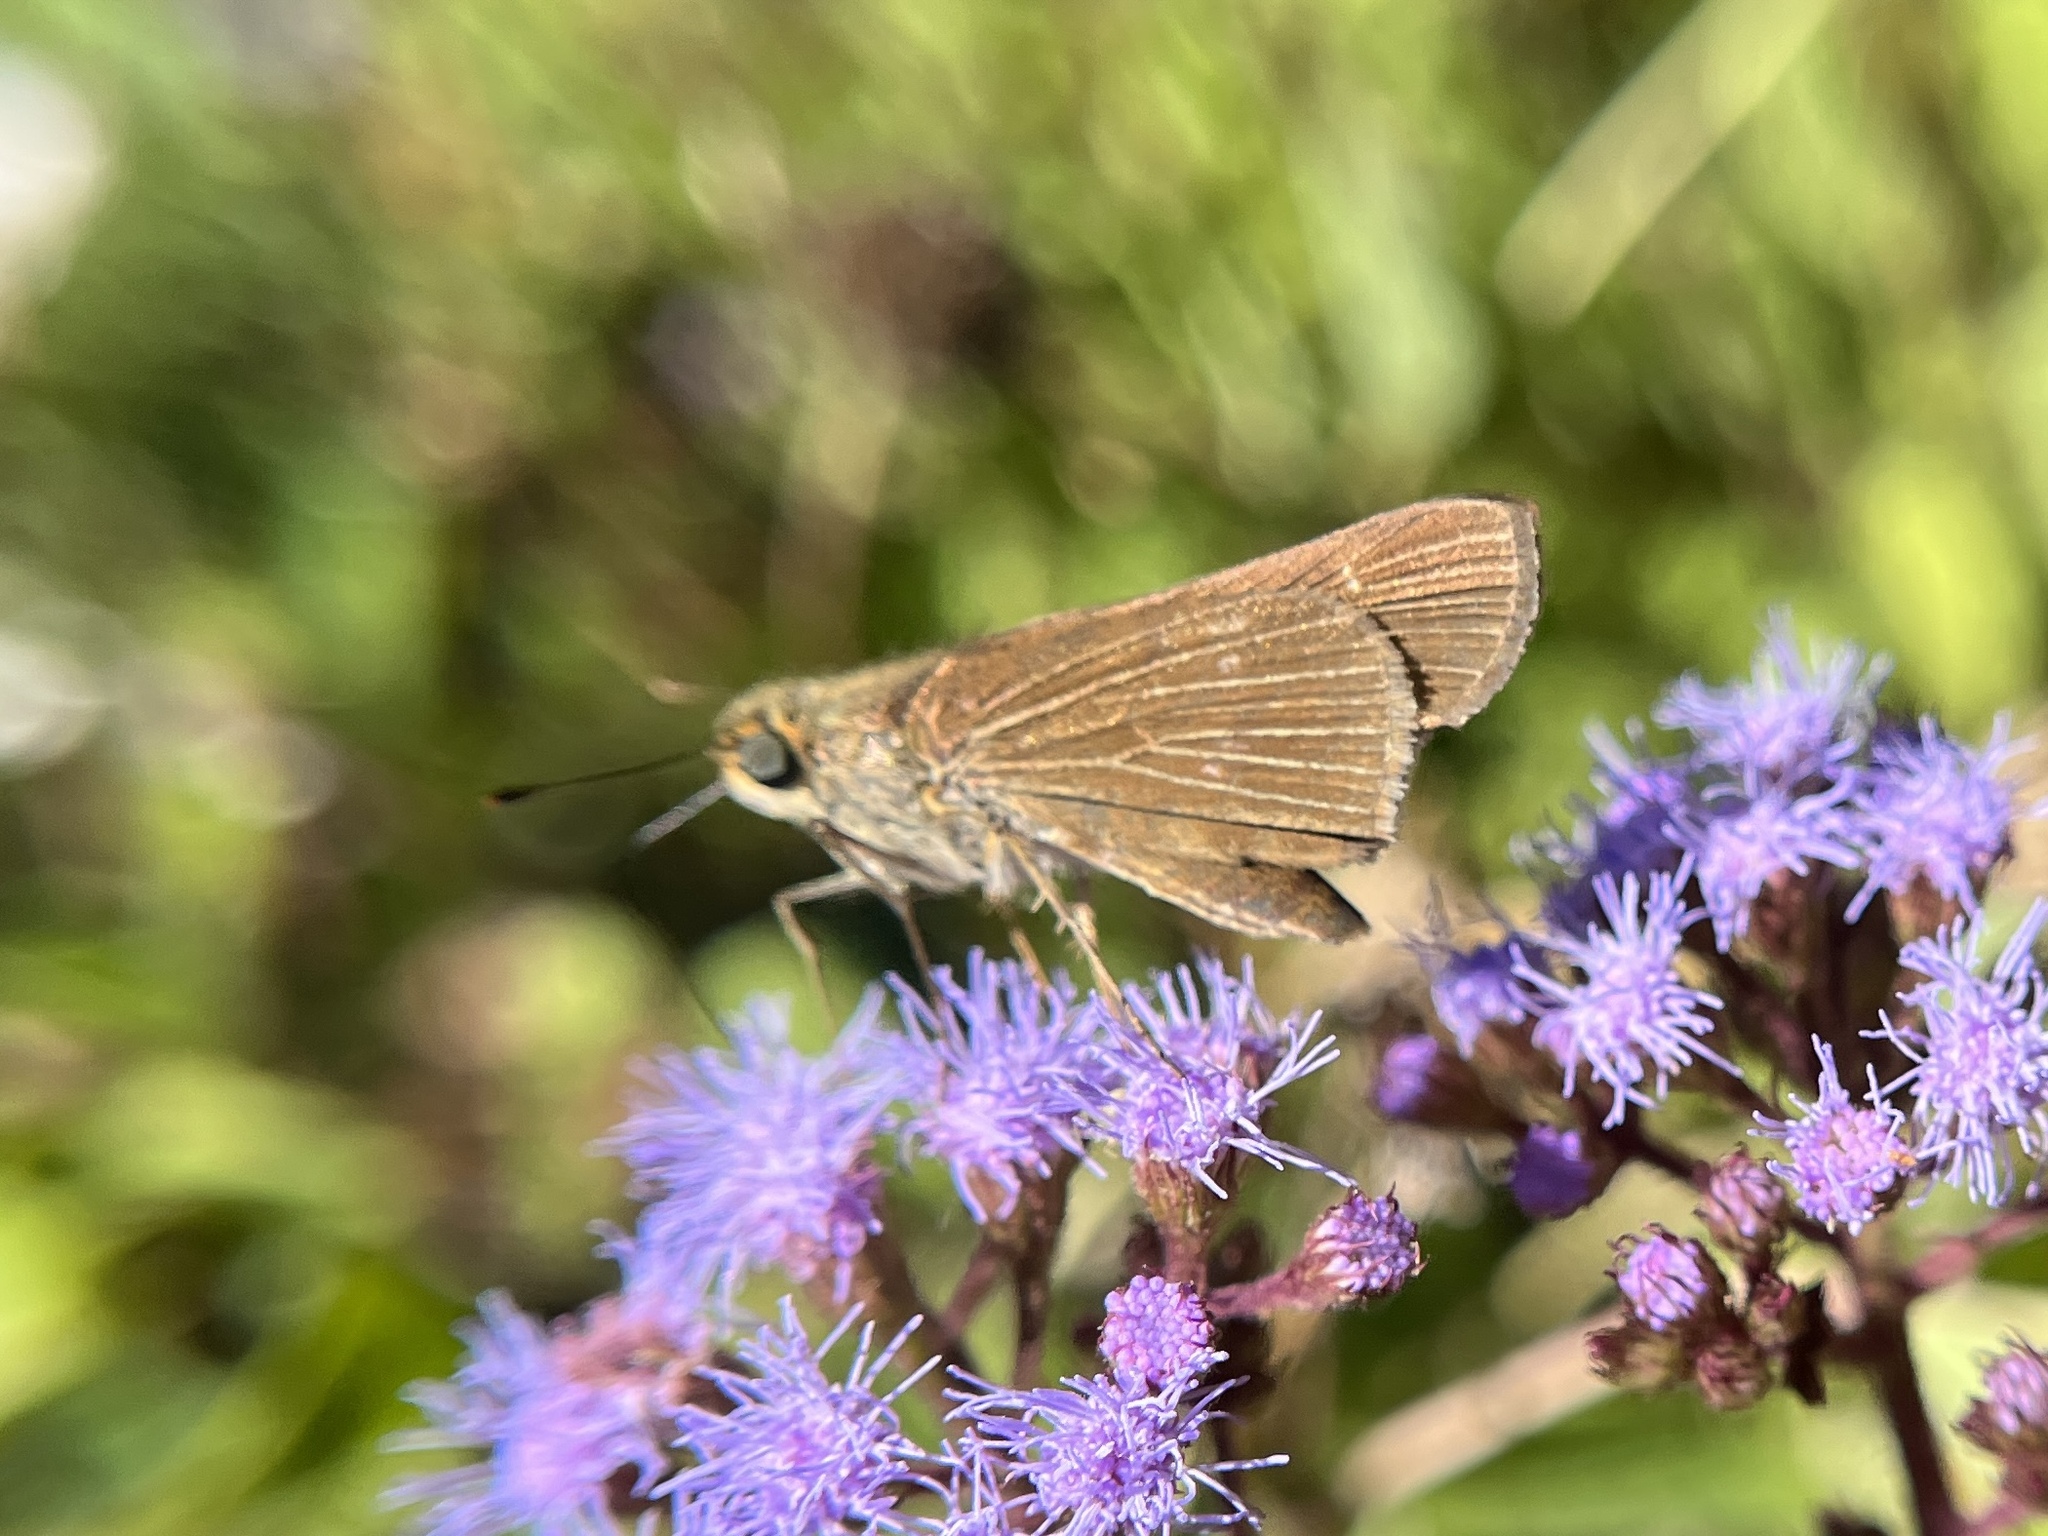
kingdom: Animalia
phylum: Arthropoda
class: Insecta
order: Lepidoptera
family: Hesperiidae
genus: Panoquina
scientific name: Panoquina ocola
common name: Ocola skipper
